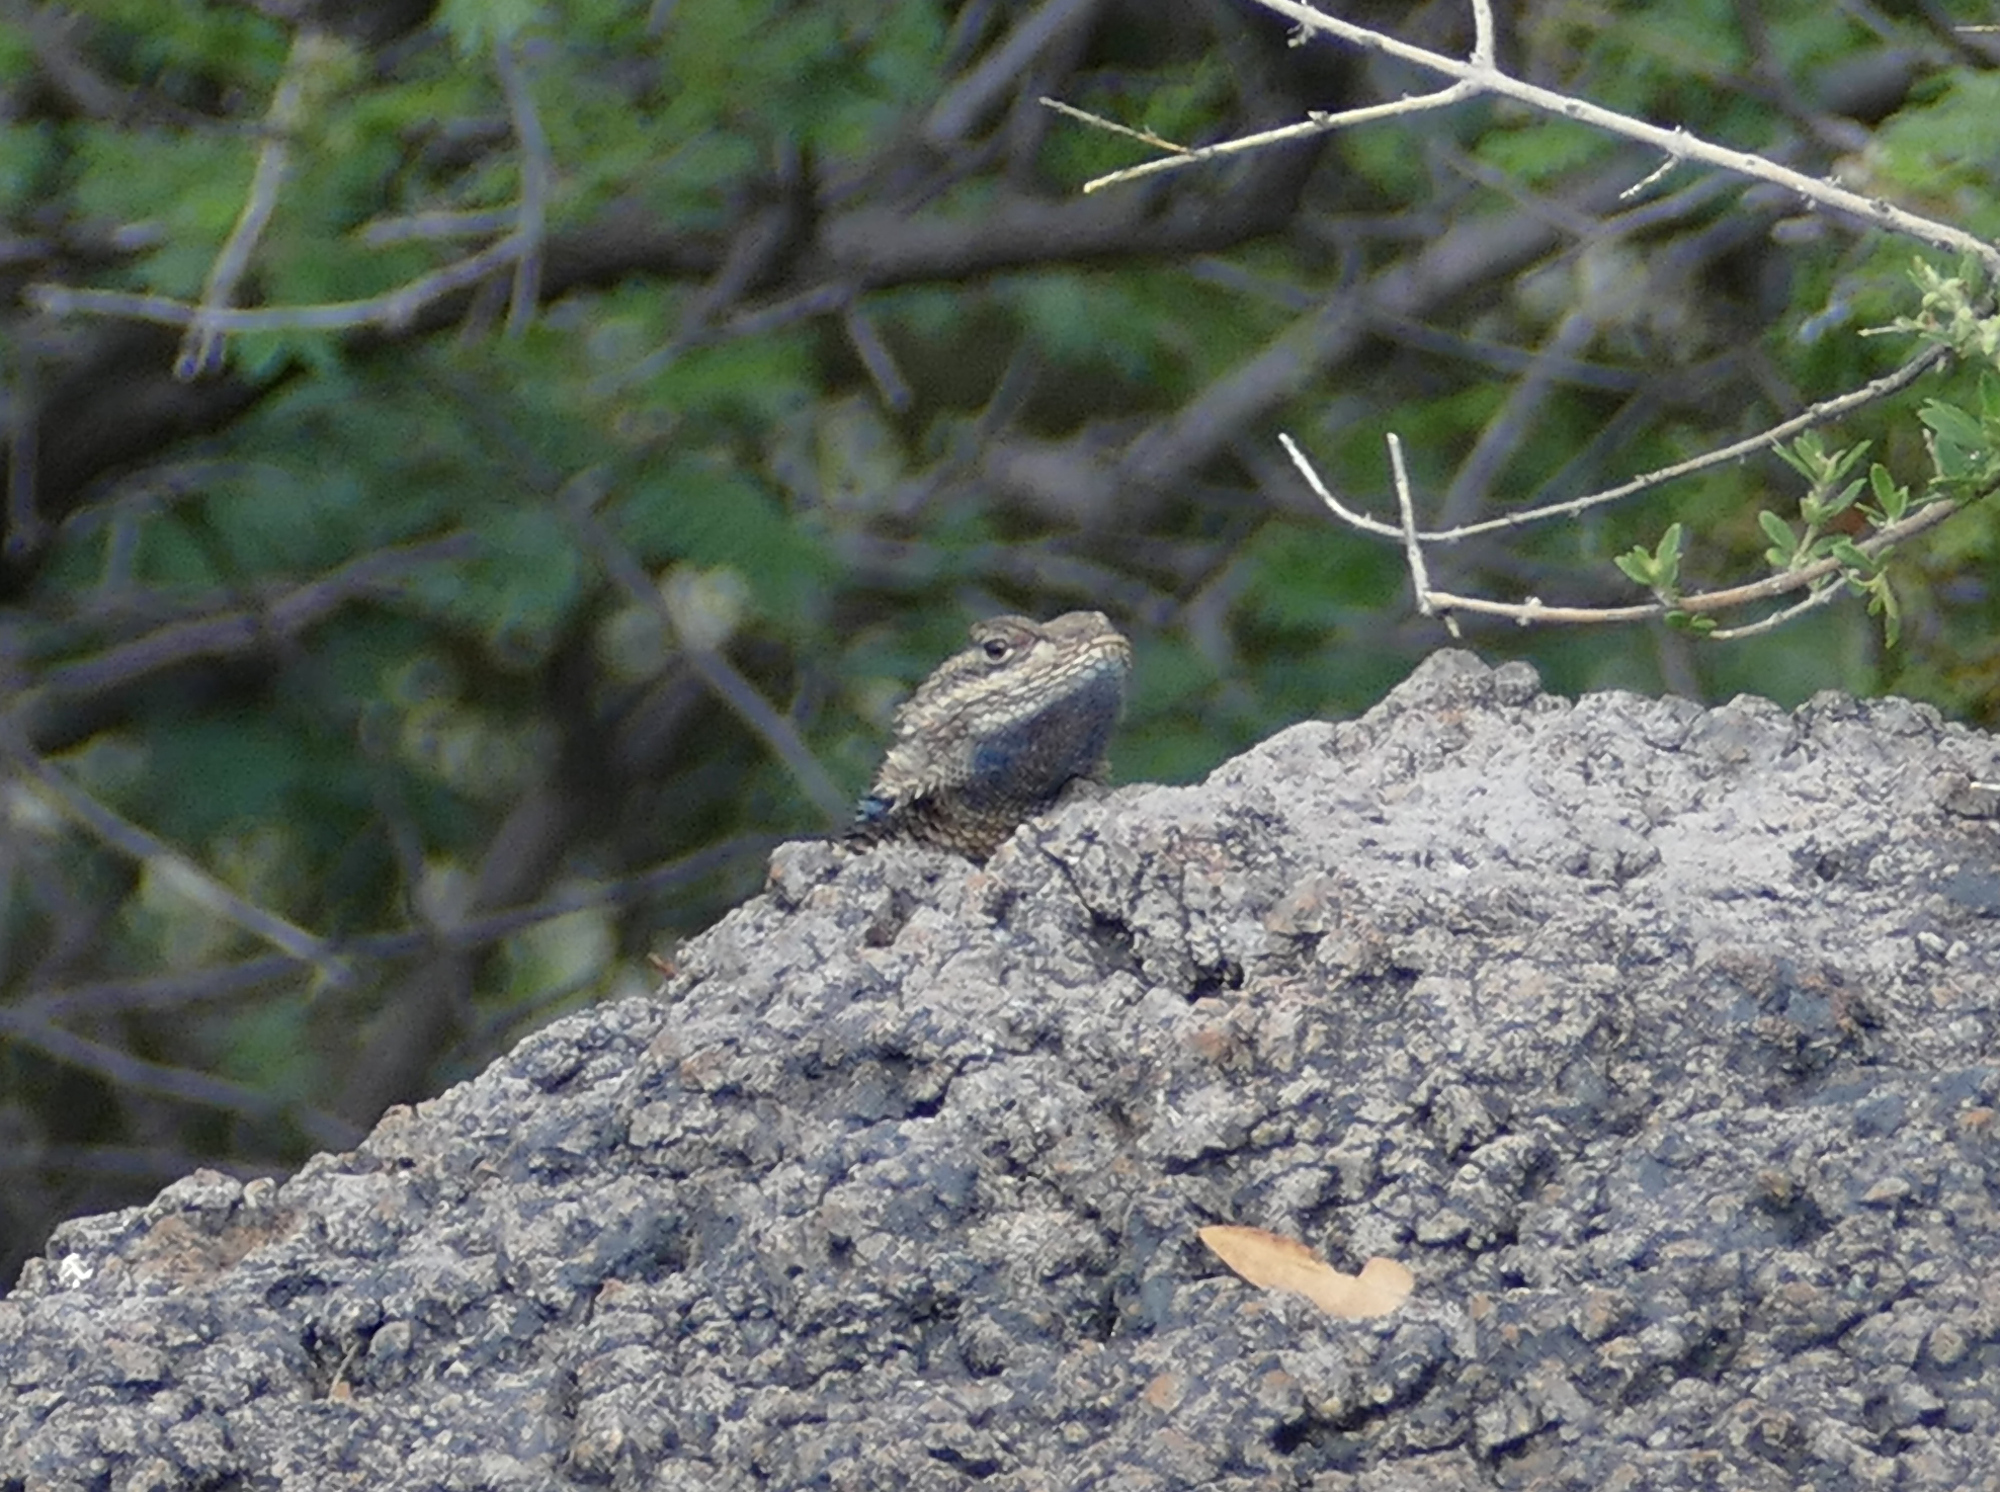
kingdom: Animalia
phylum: Chordata
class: Squamata
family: Phrynosomatidae
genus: Sceloporus
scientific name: Sceloporus poinsettii
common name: Crevice spiny lizard
